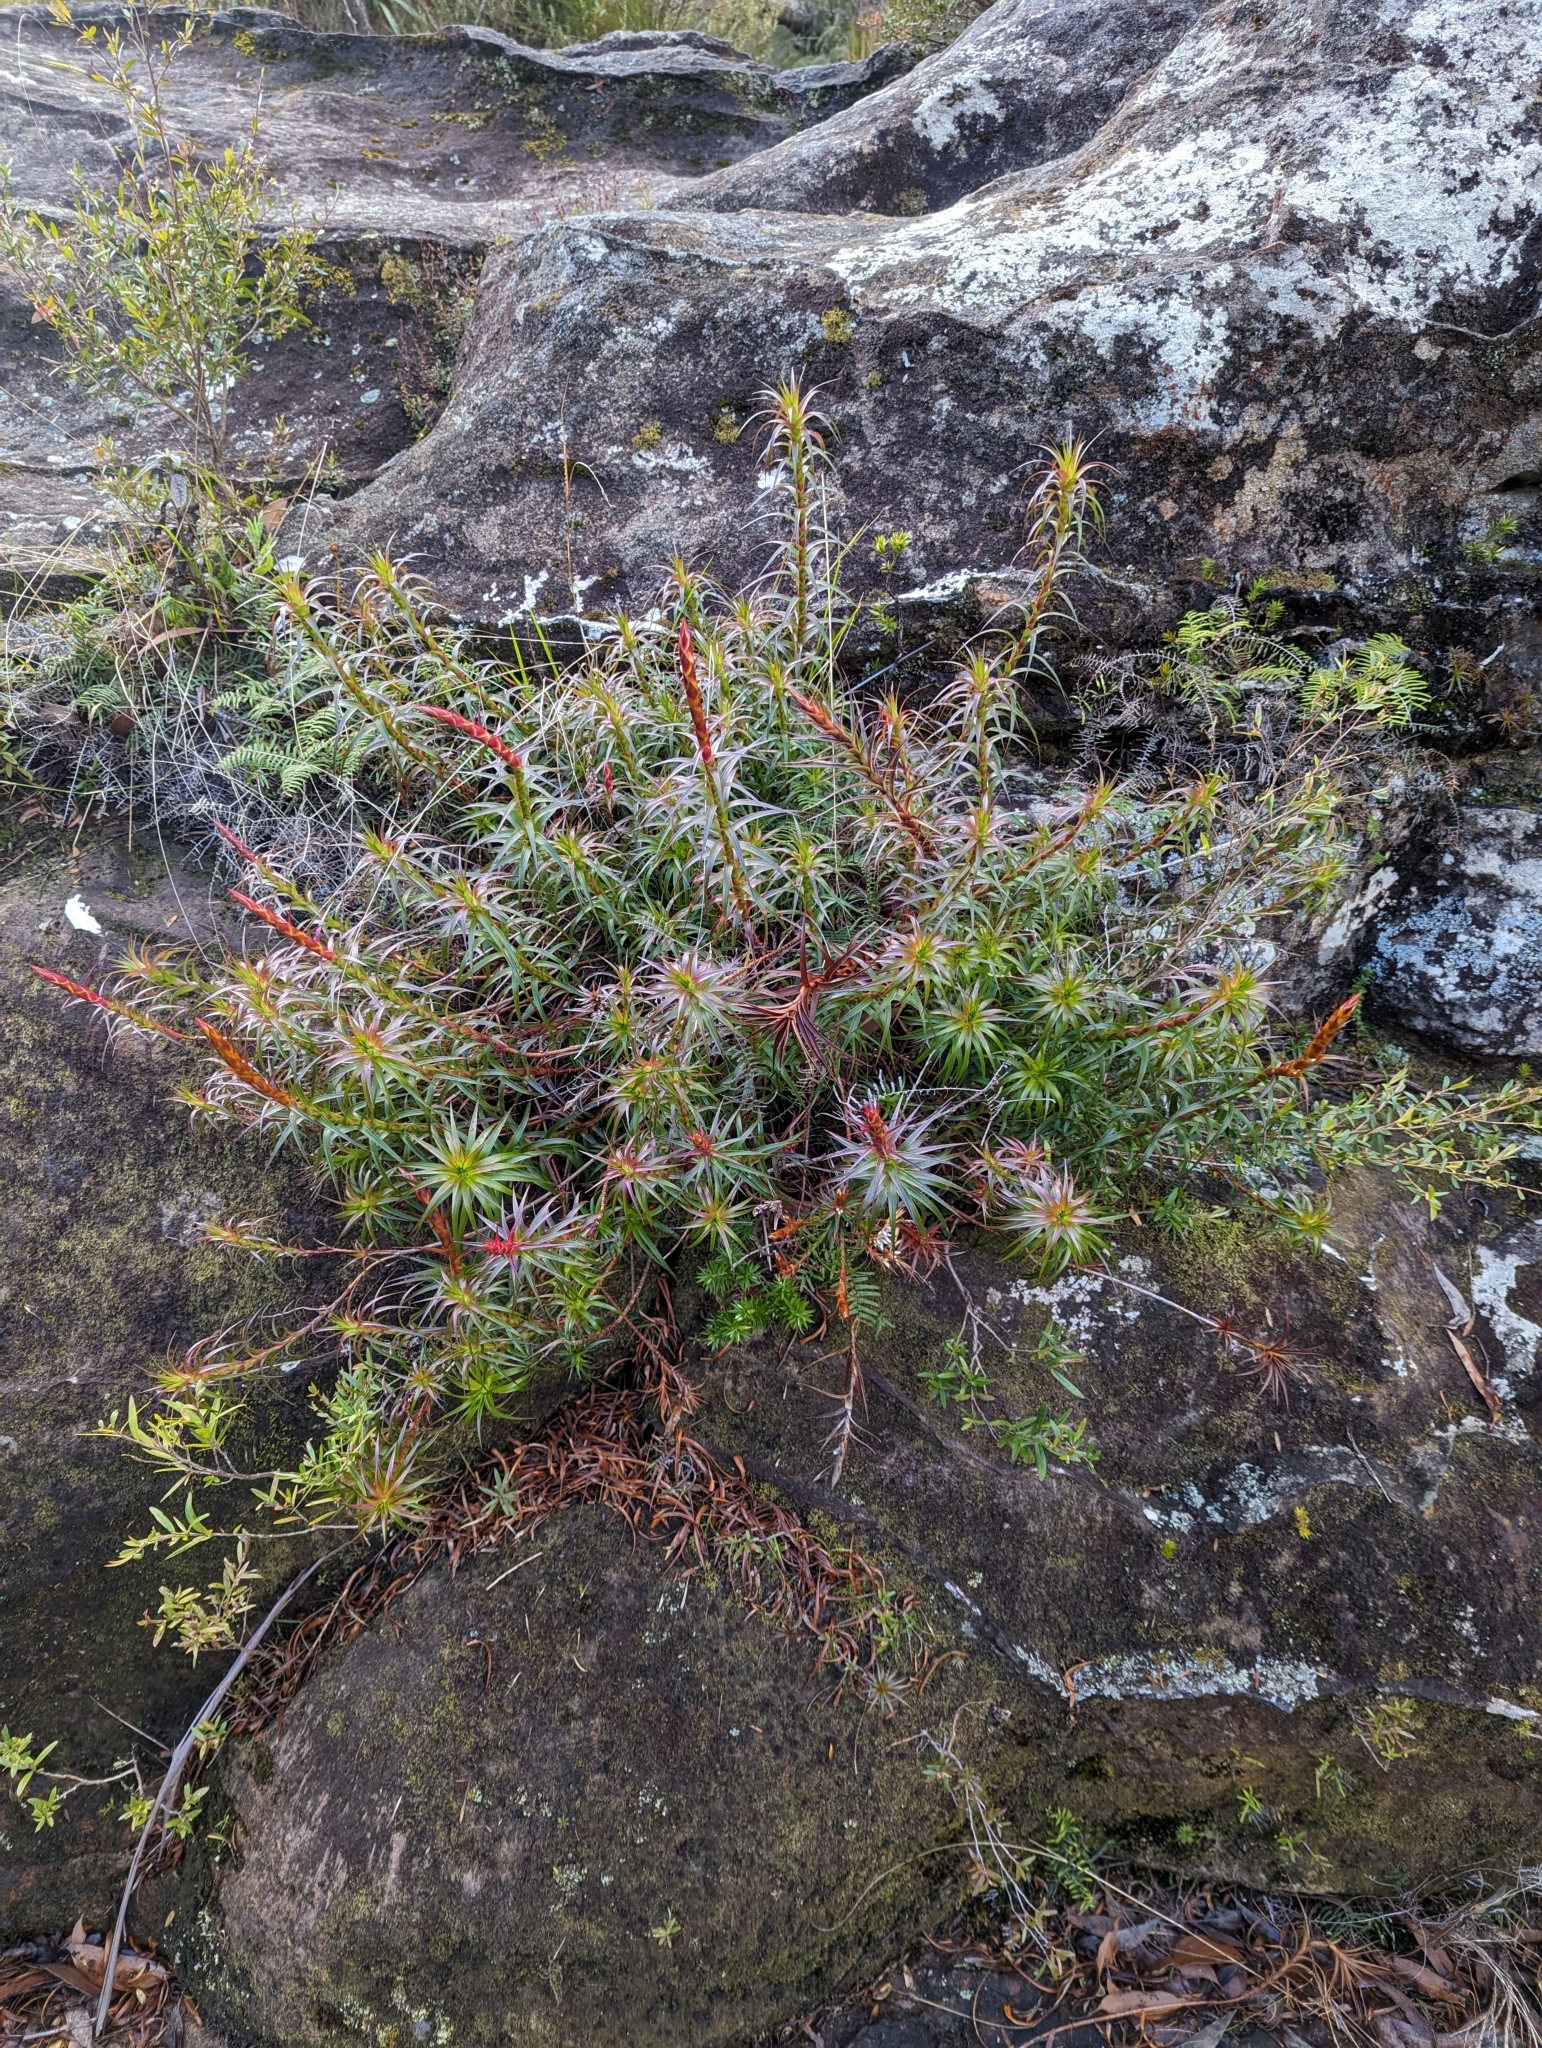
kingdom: Plantae
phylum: Tracheophyta
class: Magnoliopsida
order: Ericales
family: Ericaceae
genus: Dracophyllum
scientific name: Dracophyllum secundum
